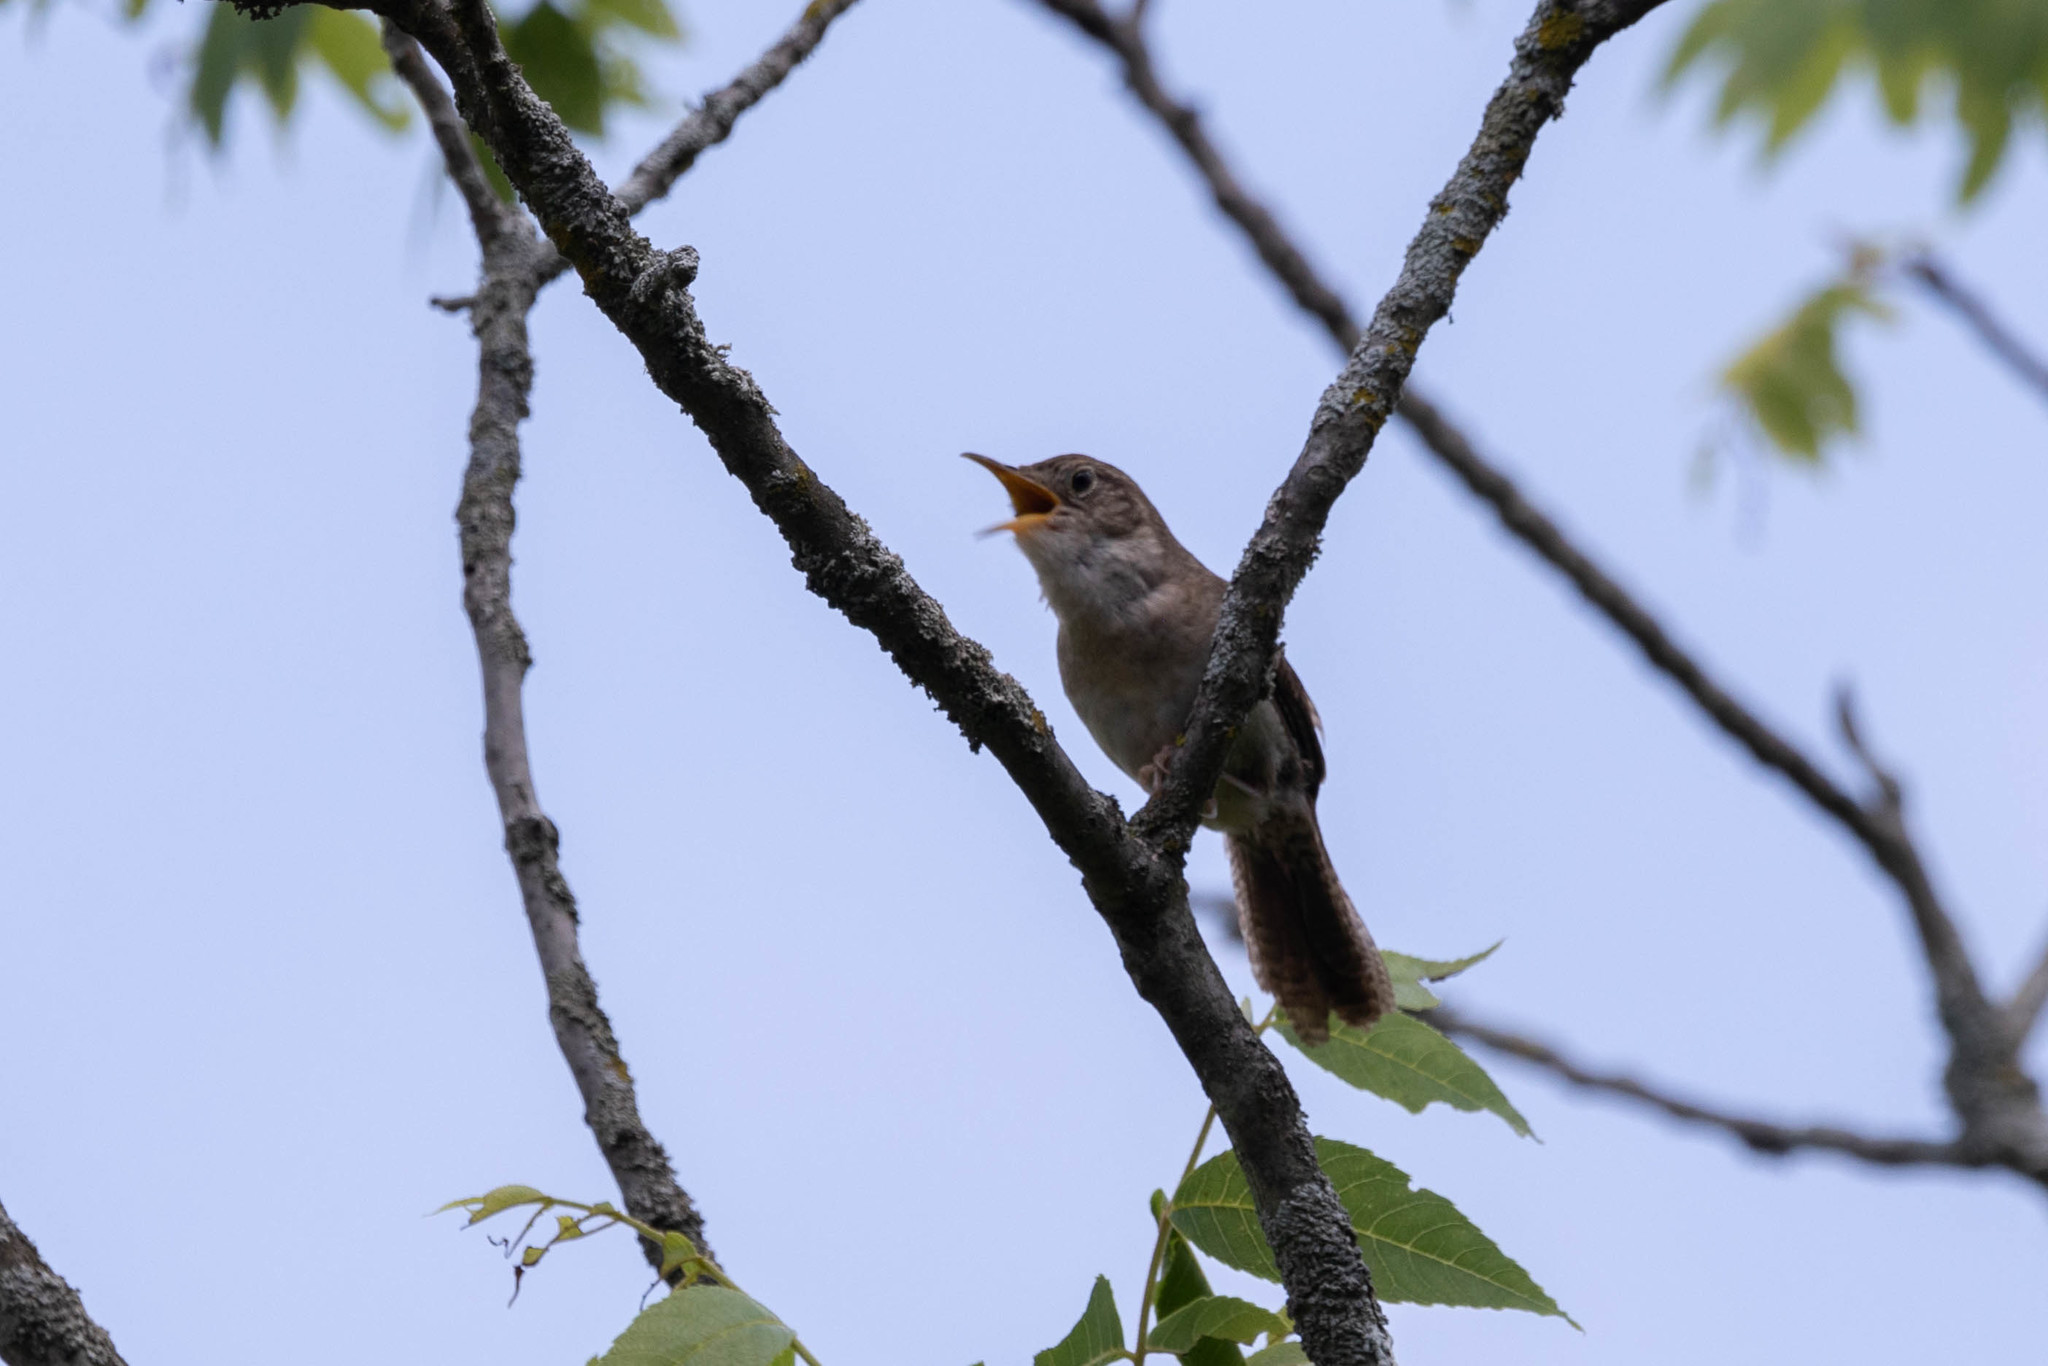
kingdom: Animalia
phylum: Chordata
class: Aves
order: Passeriformes
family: Troglodytidae
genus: Troglodytes
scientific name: Troglodytes aedon
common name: House wren
